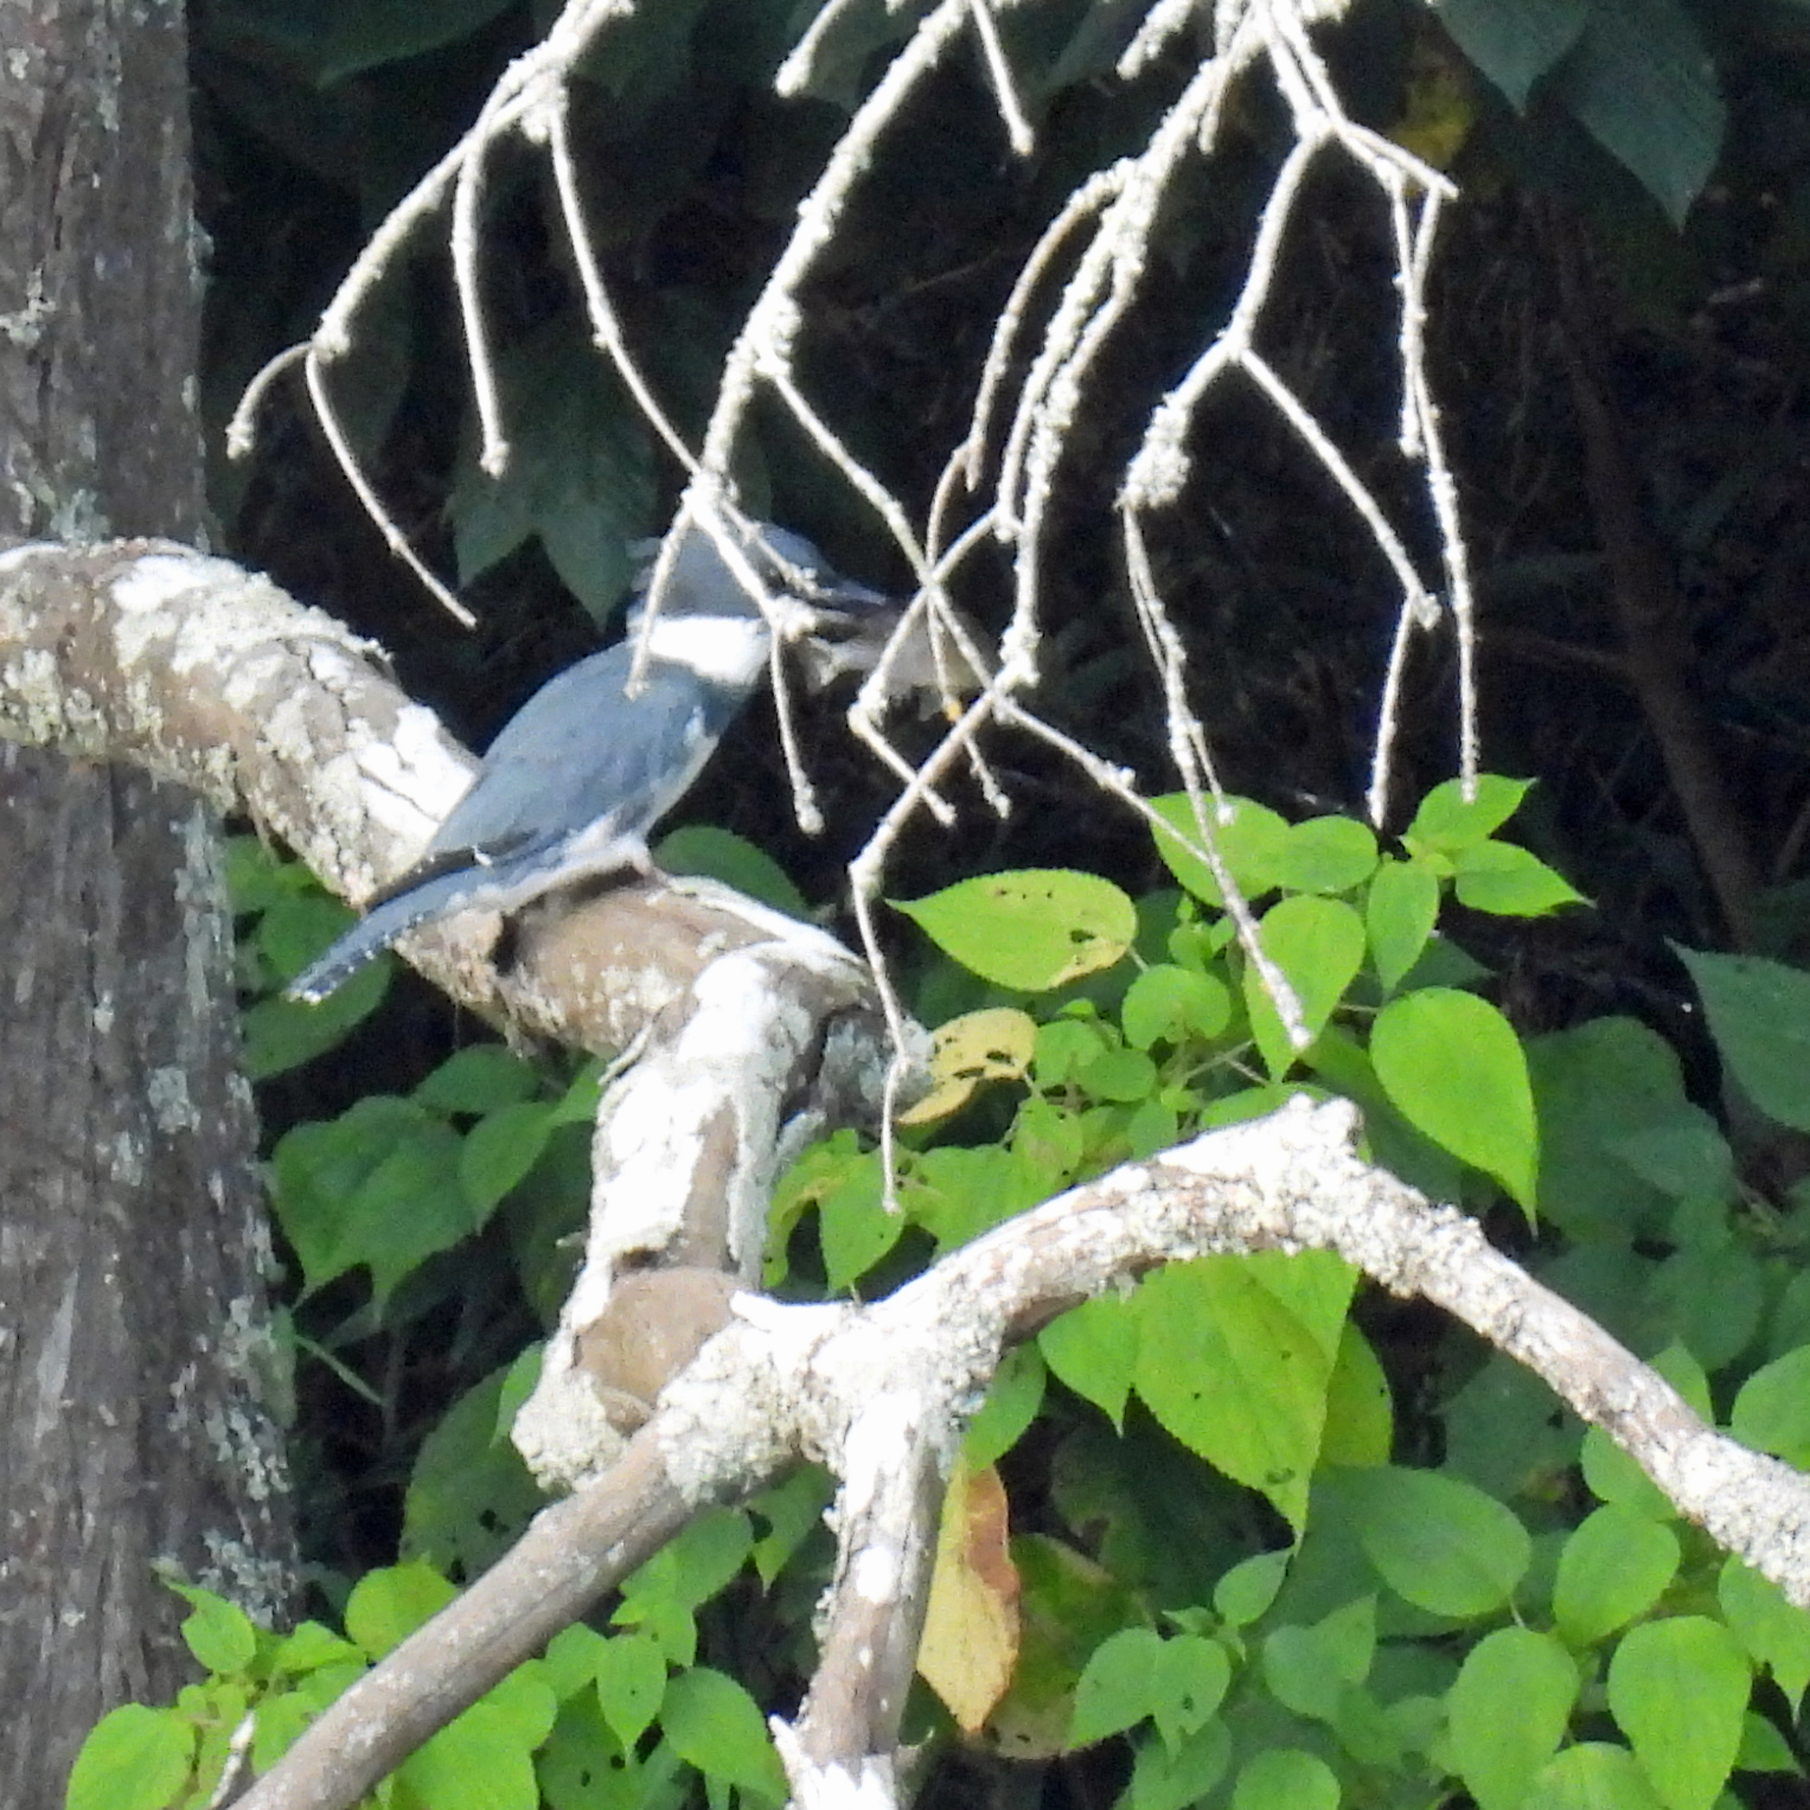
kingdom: Animalia
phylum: Chordata
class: Aves
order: Coraciiformes
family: Alcedinidae
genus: Megaceryle
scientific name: Megaceryle alcyon
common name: Belted kingfisher
